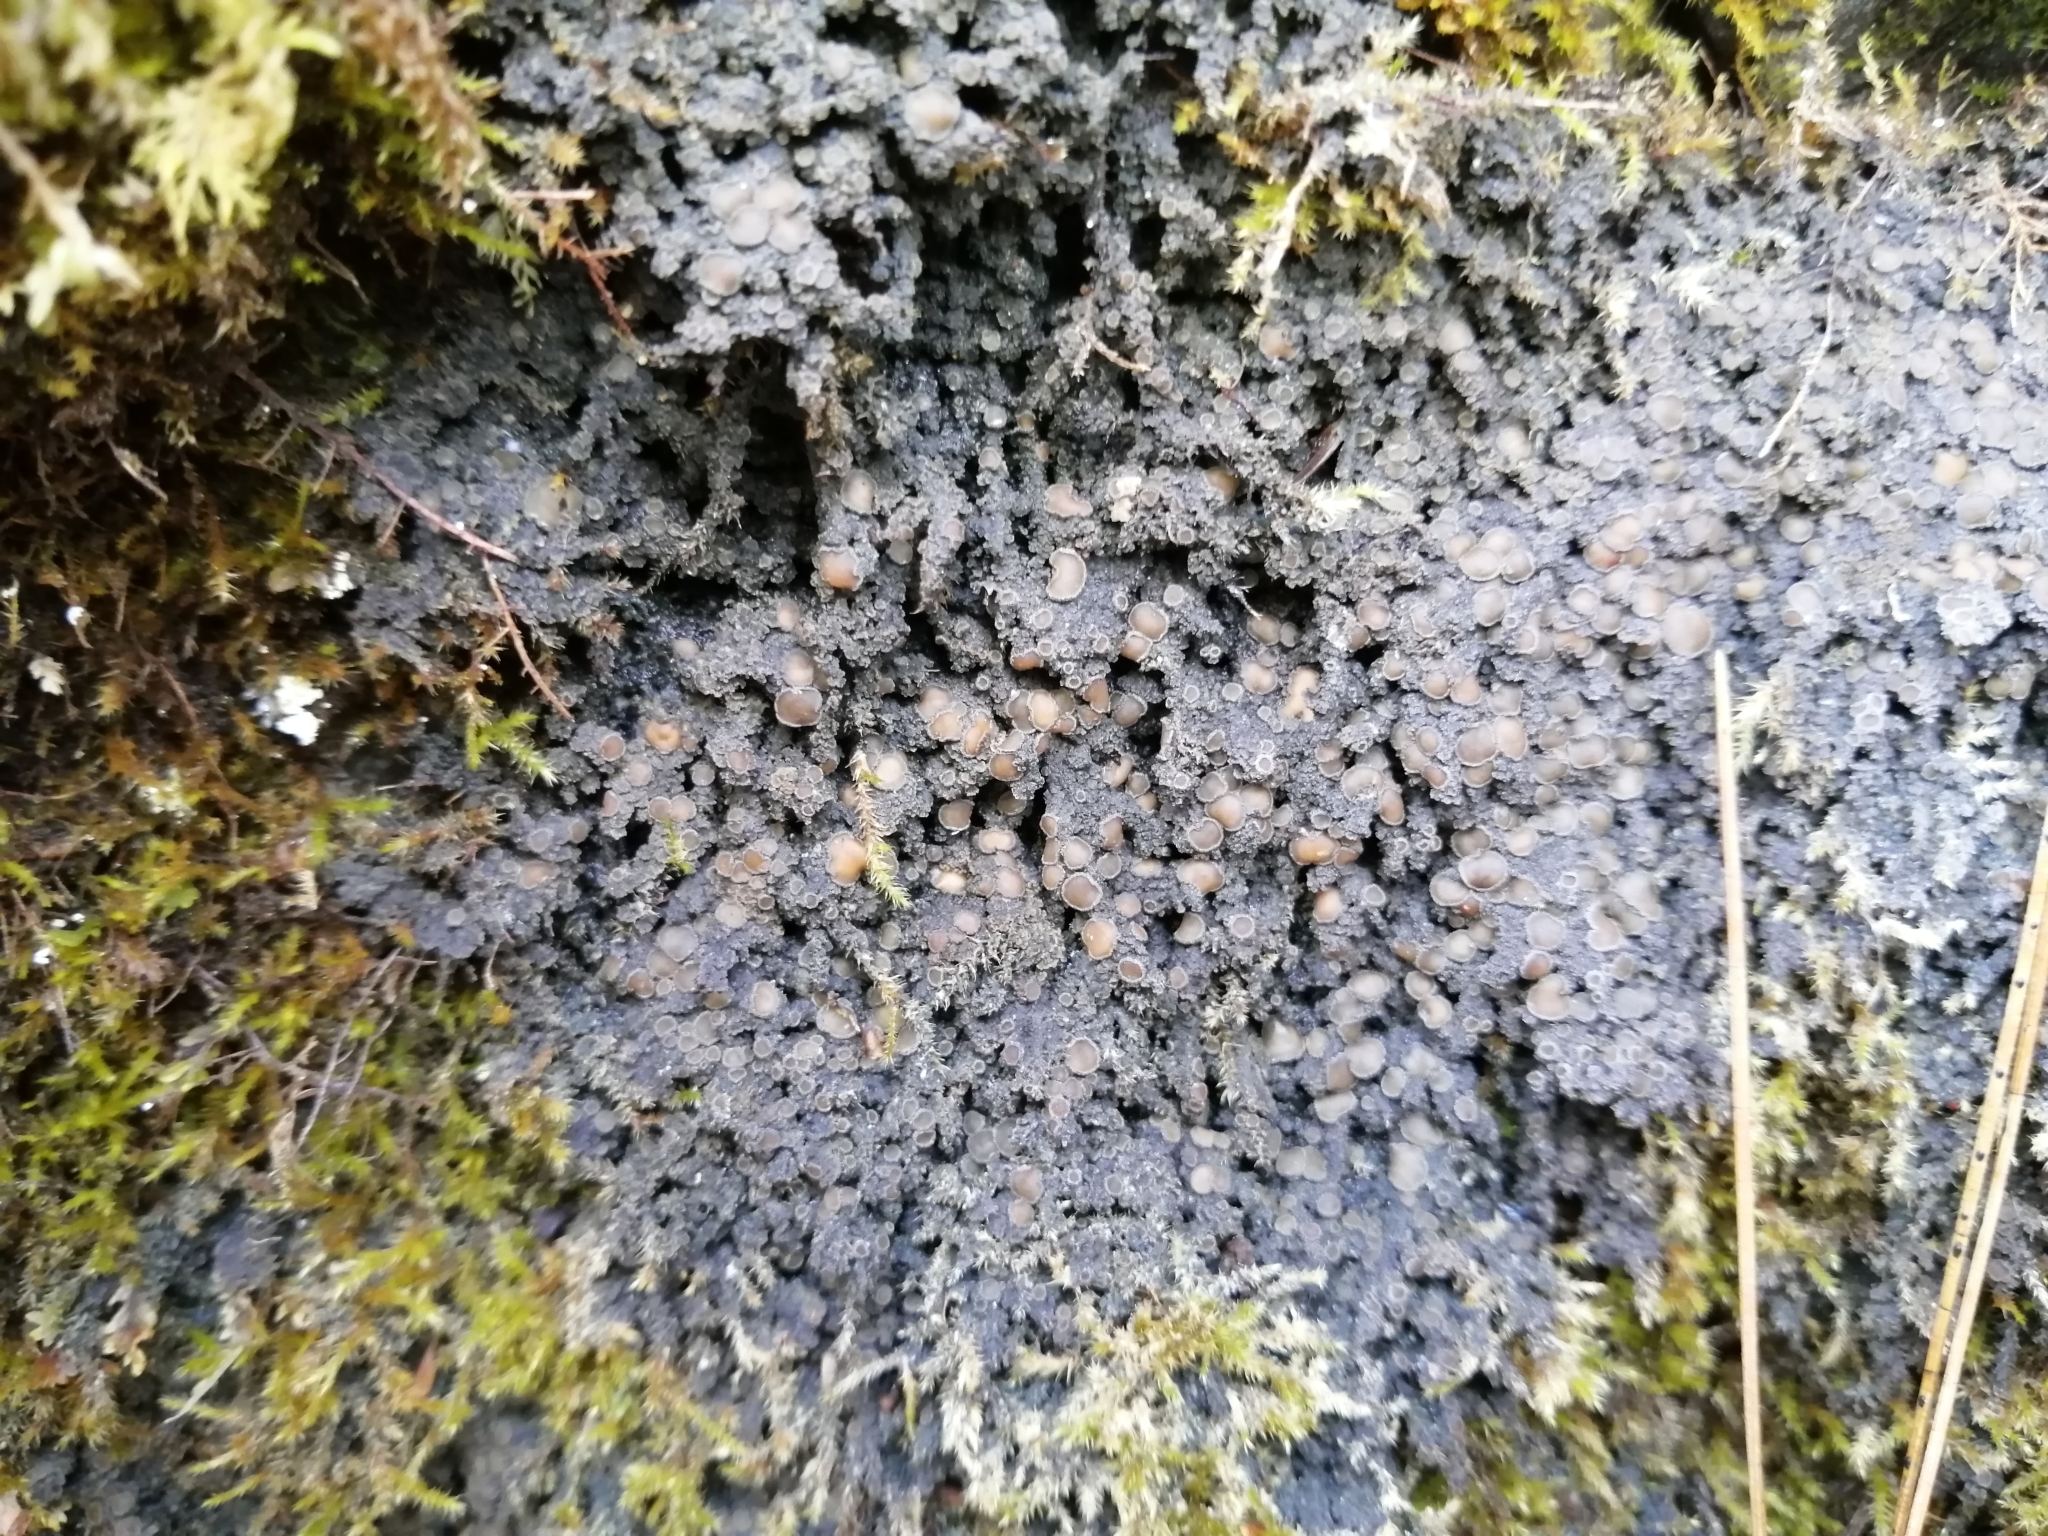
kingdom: Fungi
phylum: Ascomycota
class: Lecanoromycetes
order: Peltigerales
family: Pannariaceae
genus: Protopannaria
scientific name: Protopannaria pezizoides
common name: Brown-gray m oss-shingle
